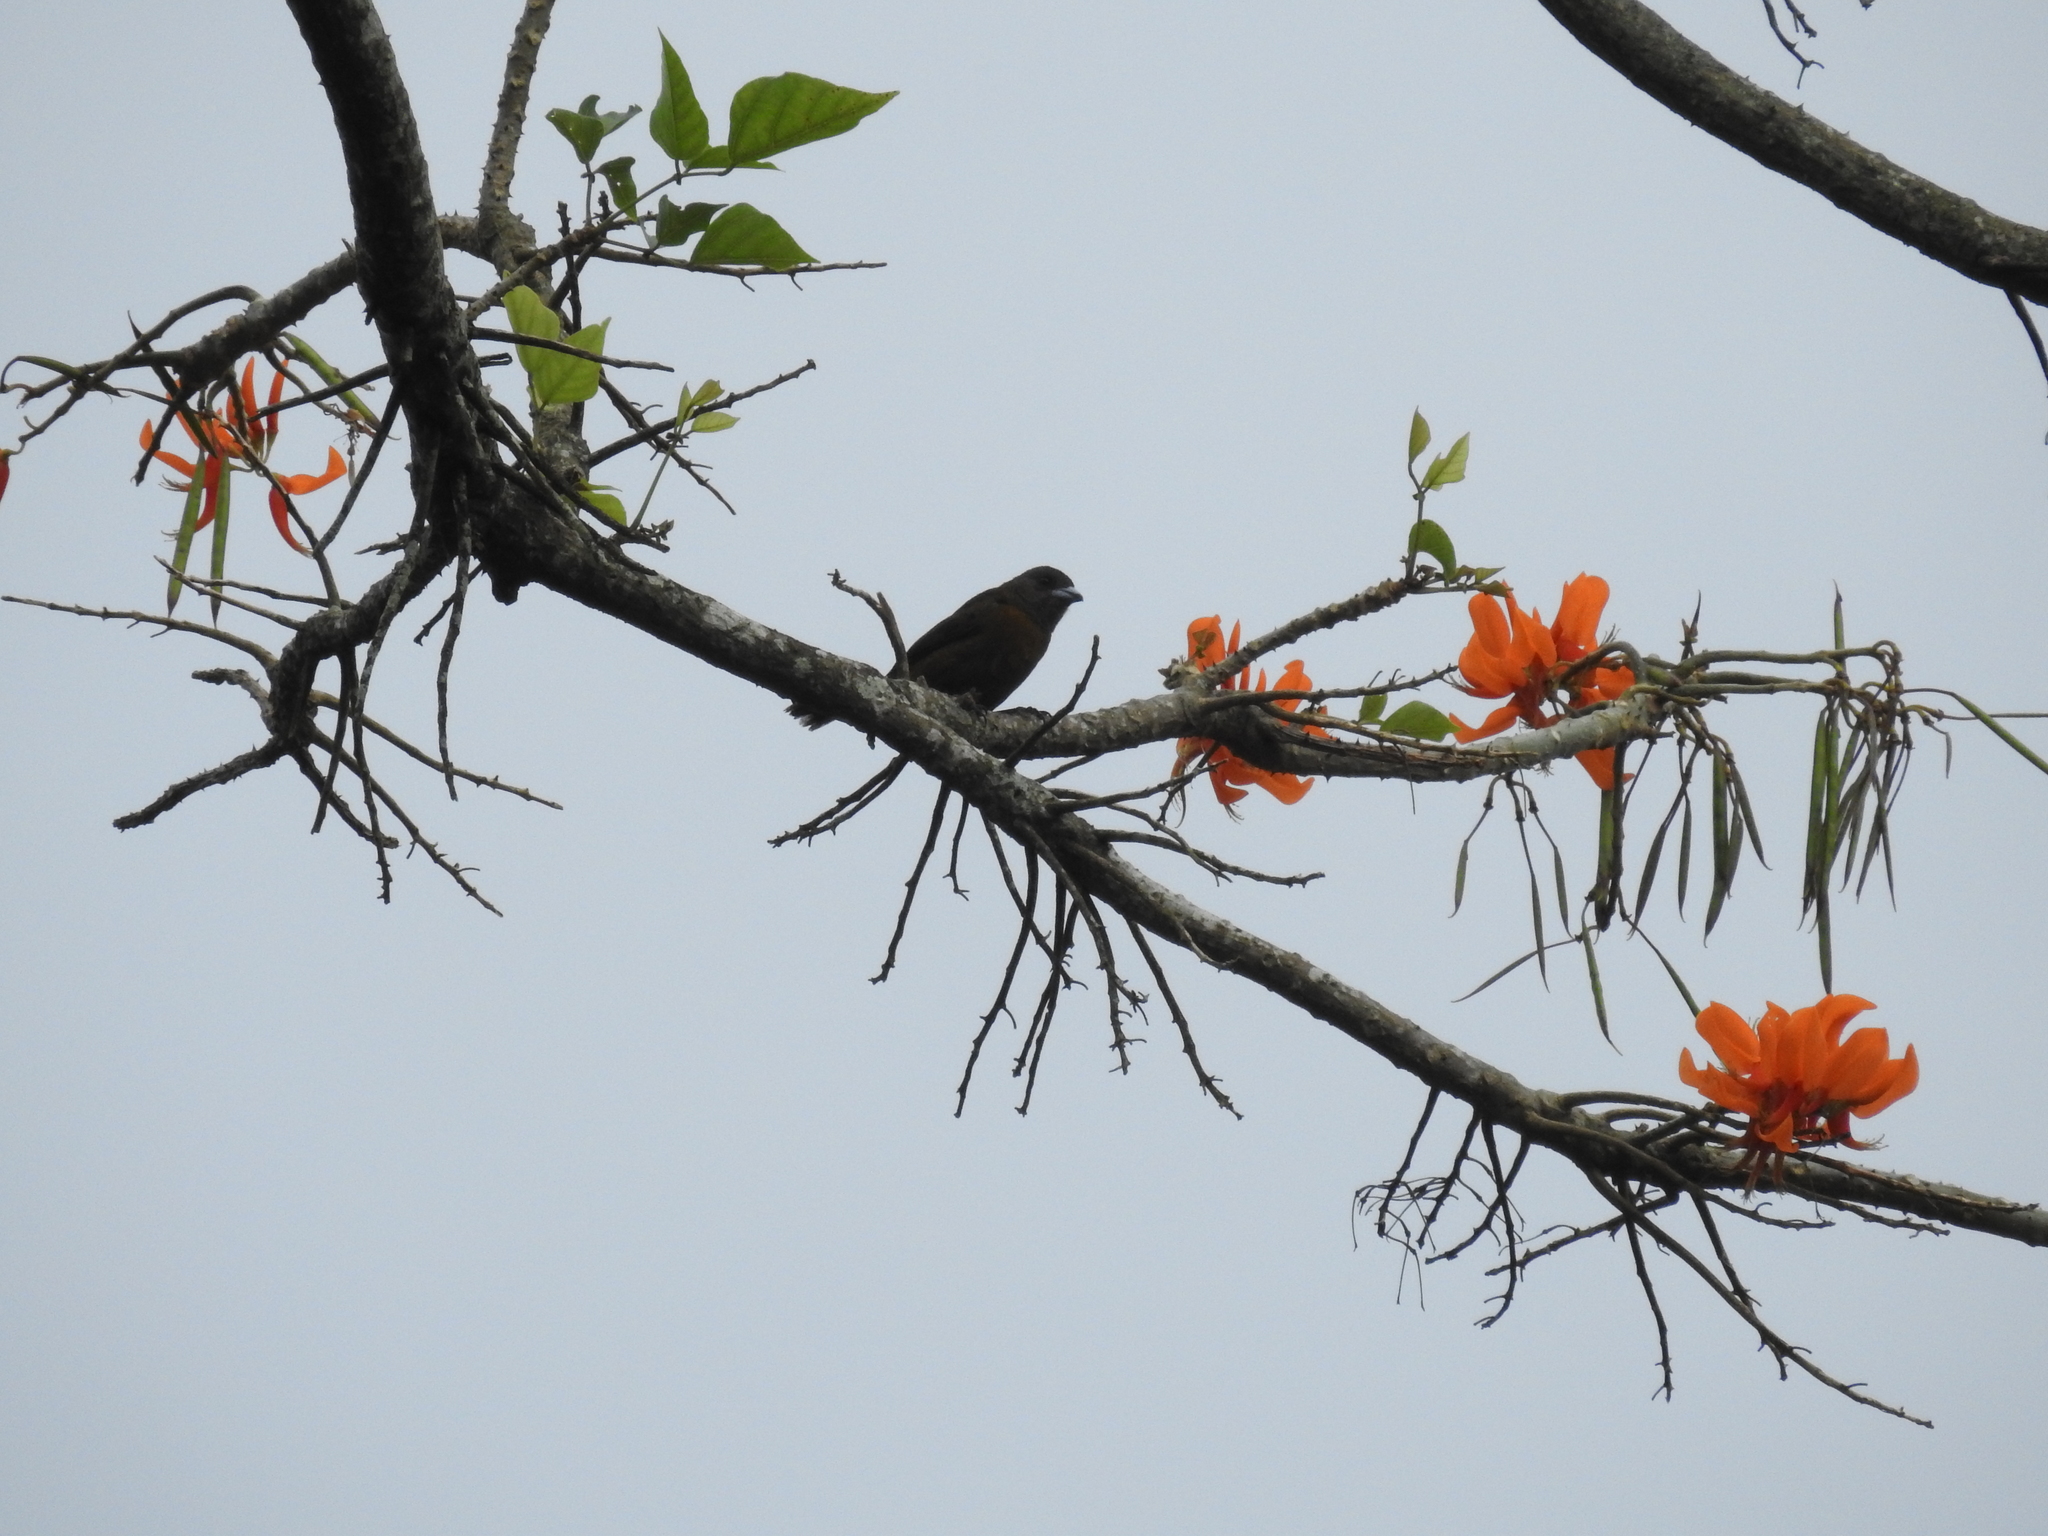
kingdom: Animalia
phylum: Chordata
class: Aves
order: Passeriformes
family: Thraupidae
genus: Ramphocelus
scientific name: Ramphocelus passerinii
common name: Passerini's tanager
